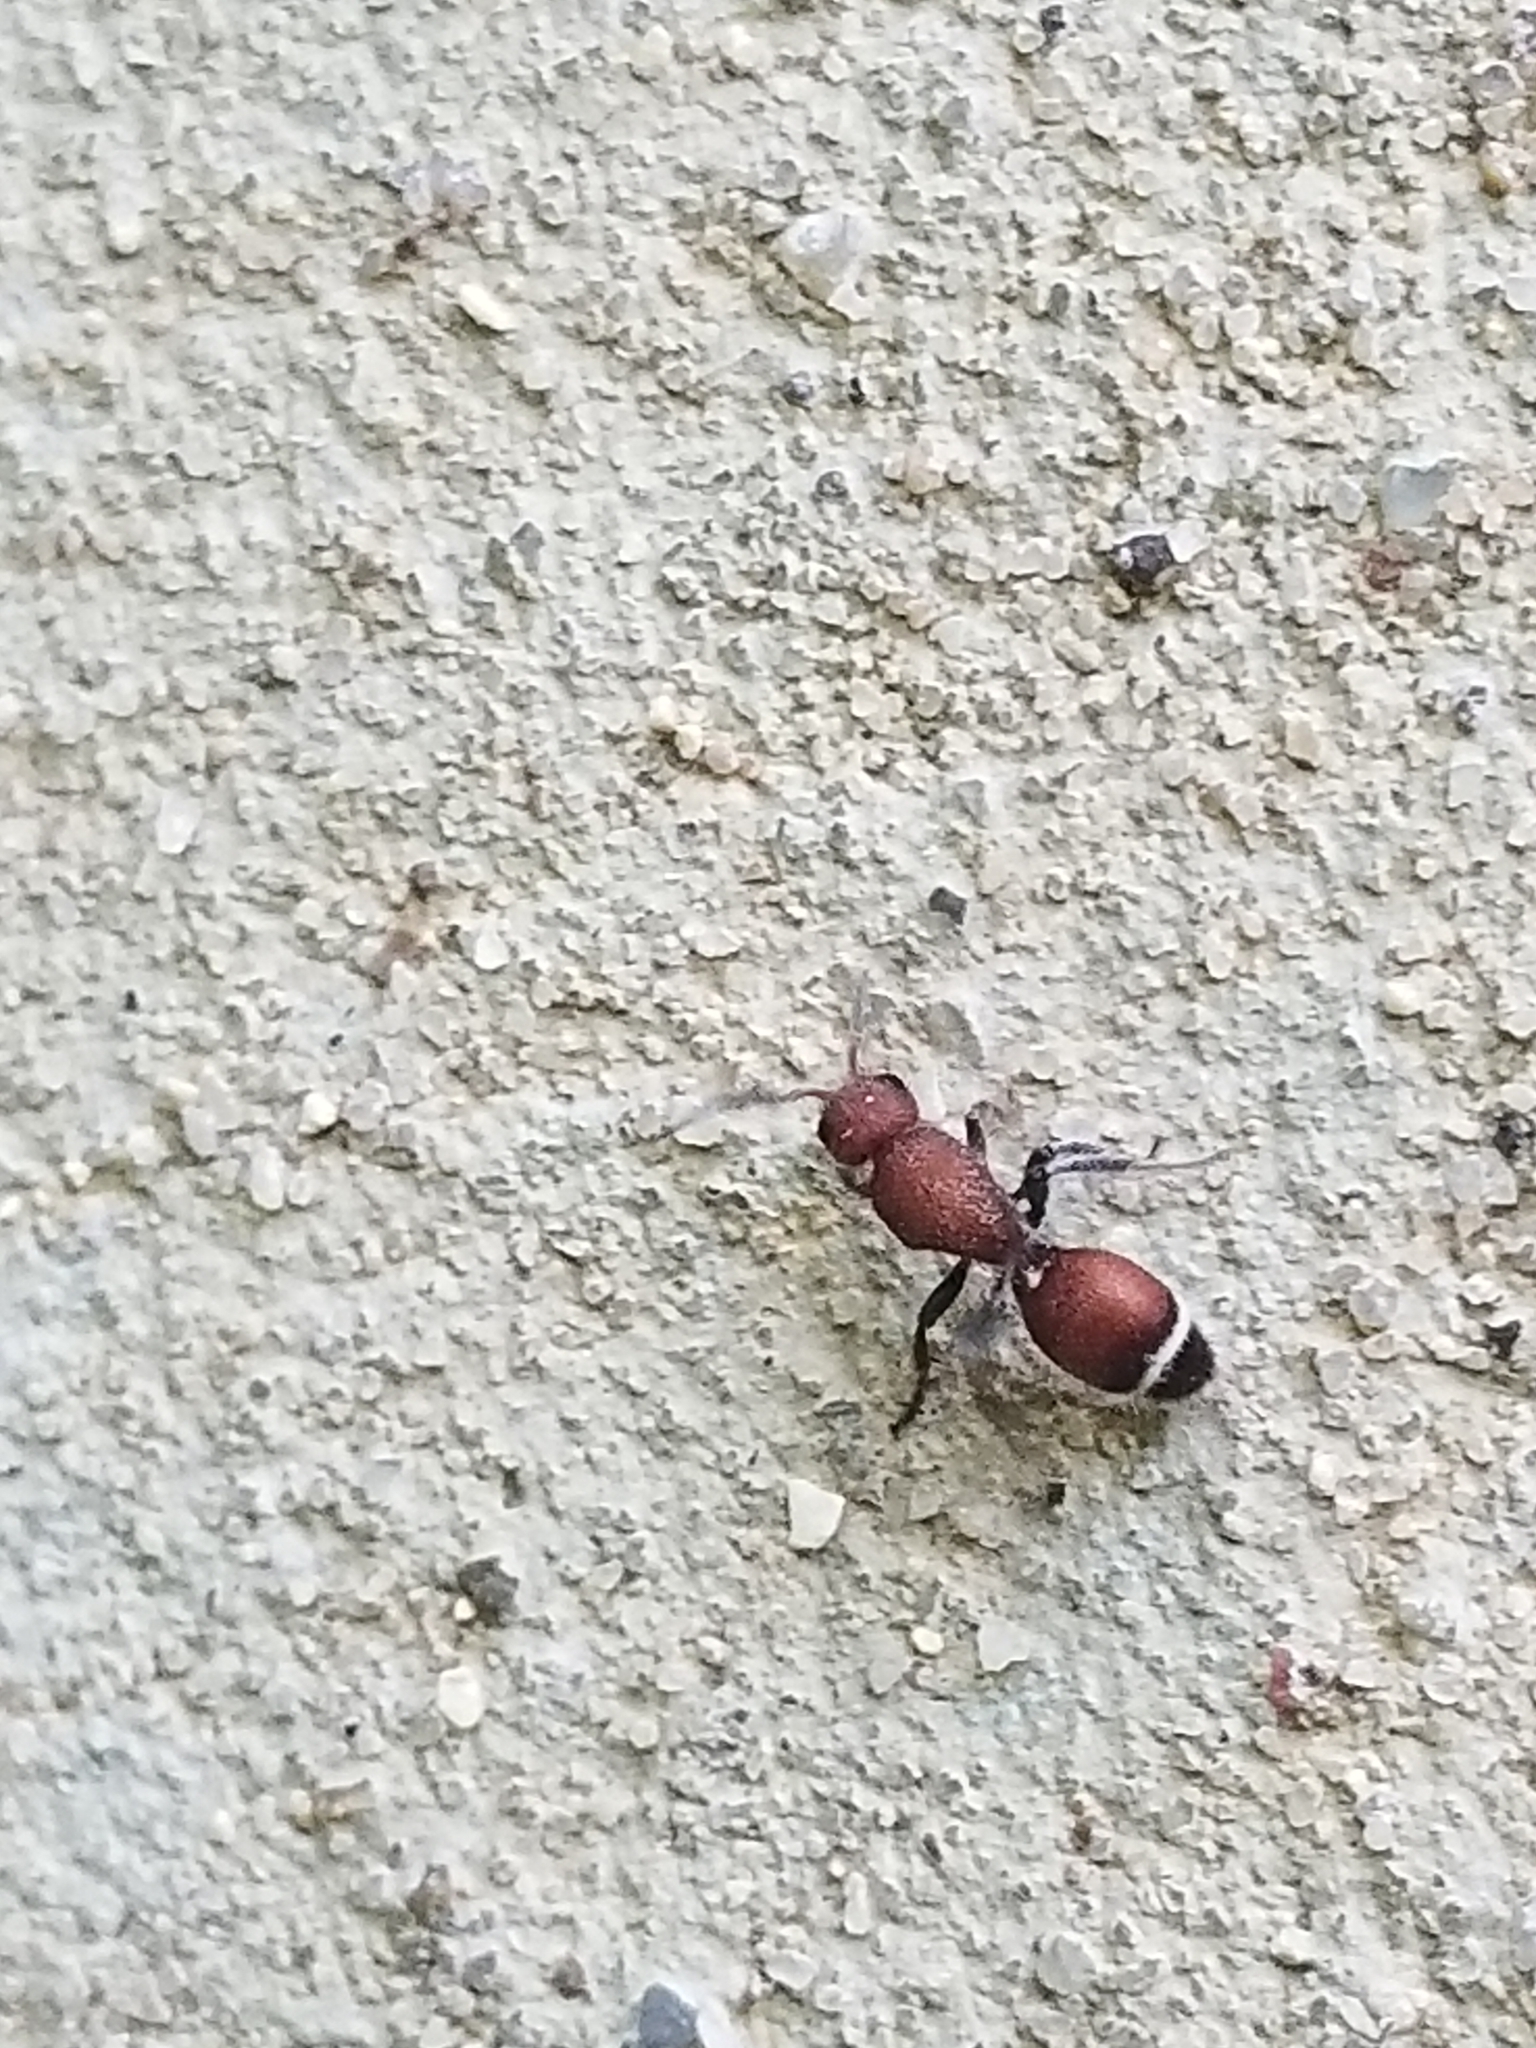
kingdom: Animalia
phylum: Arthropoda
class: Insecta
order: Hymenoptera
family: Mutillidae
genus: Sphaeropthalma
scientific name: Sphaeropthalma
